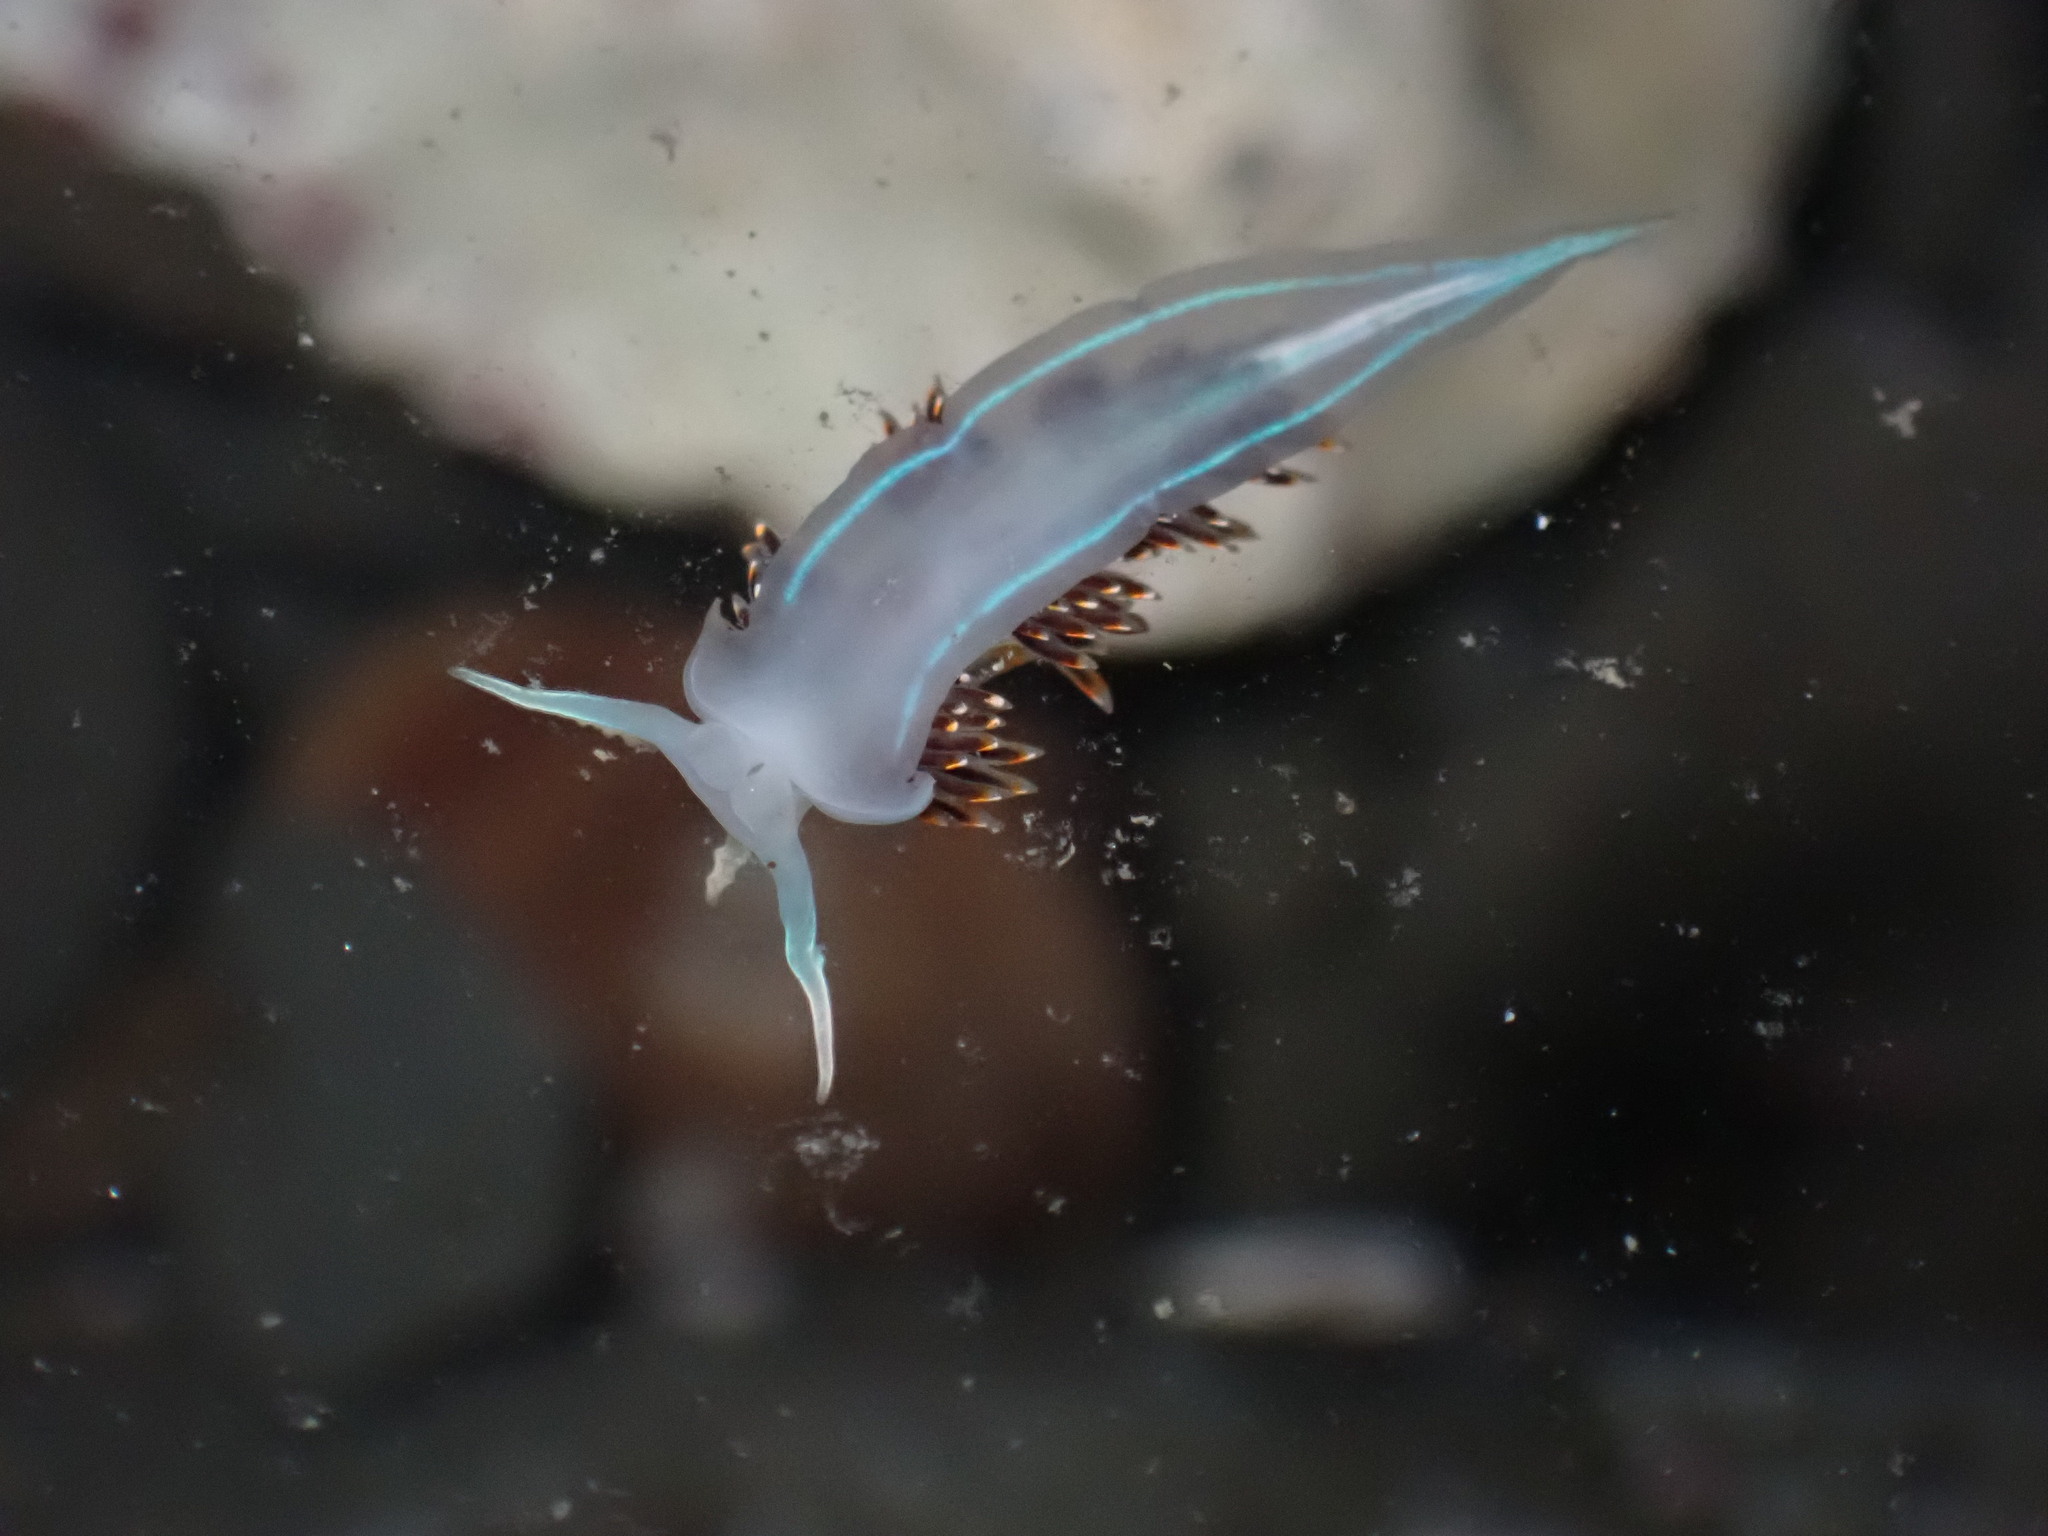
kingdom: Animalia
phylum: Mollusca
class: Gastropoda
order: Nudibranchia
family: Myrrhinidae
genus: Hermissenda
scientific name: Hermissenda opalescens
